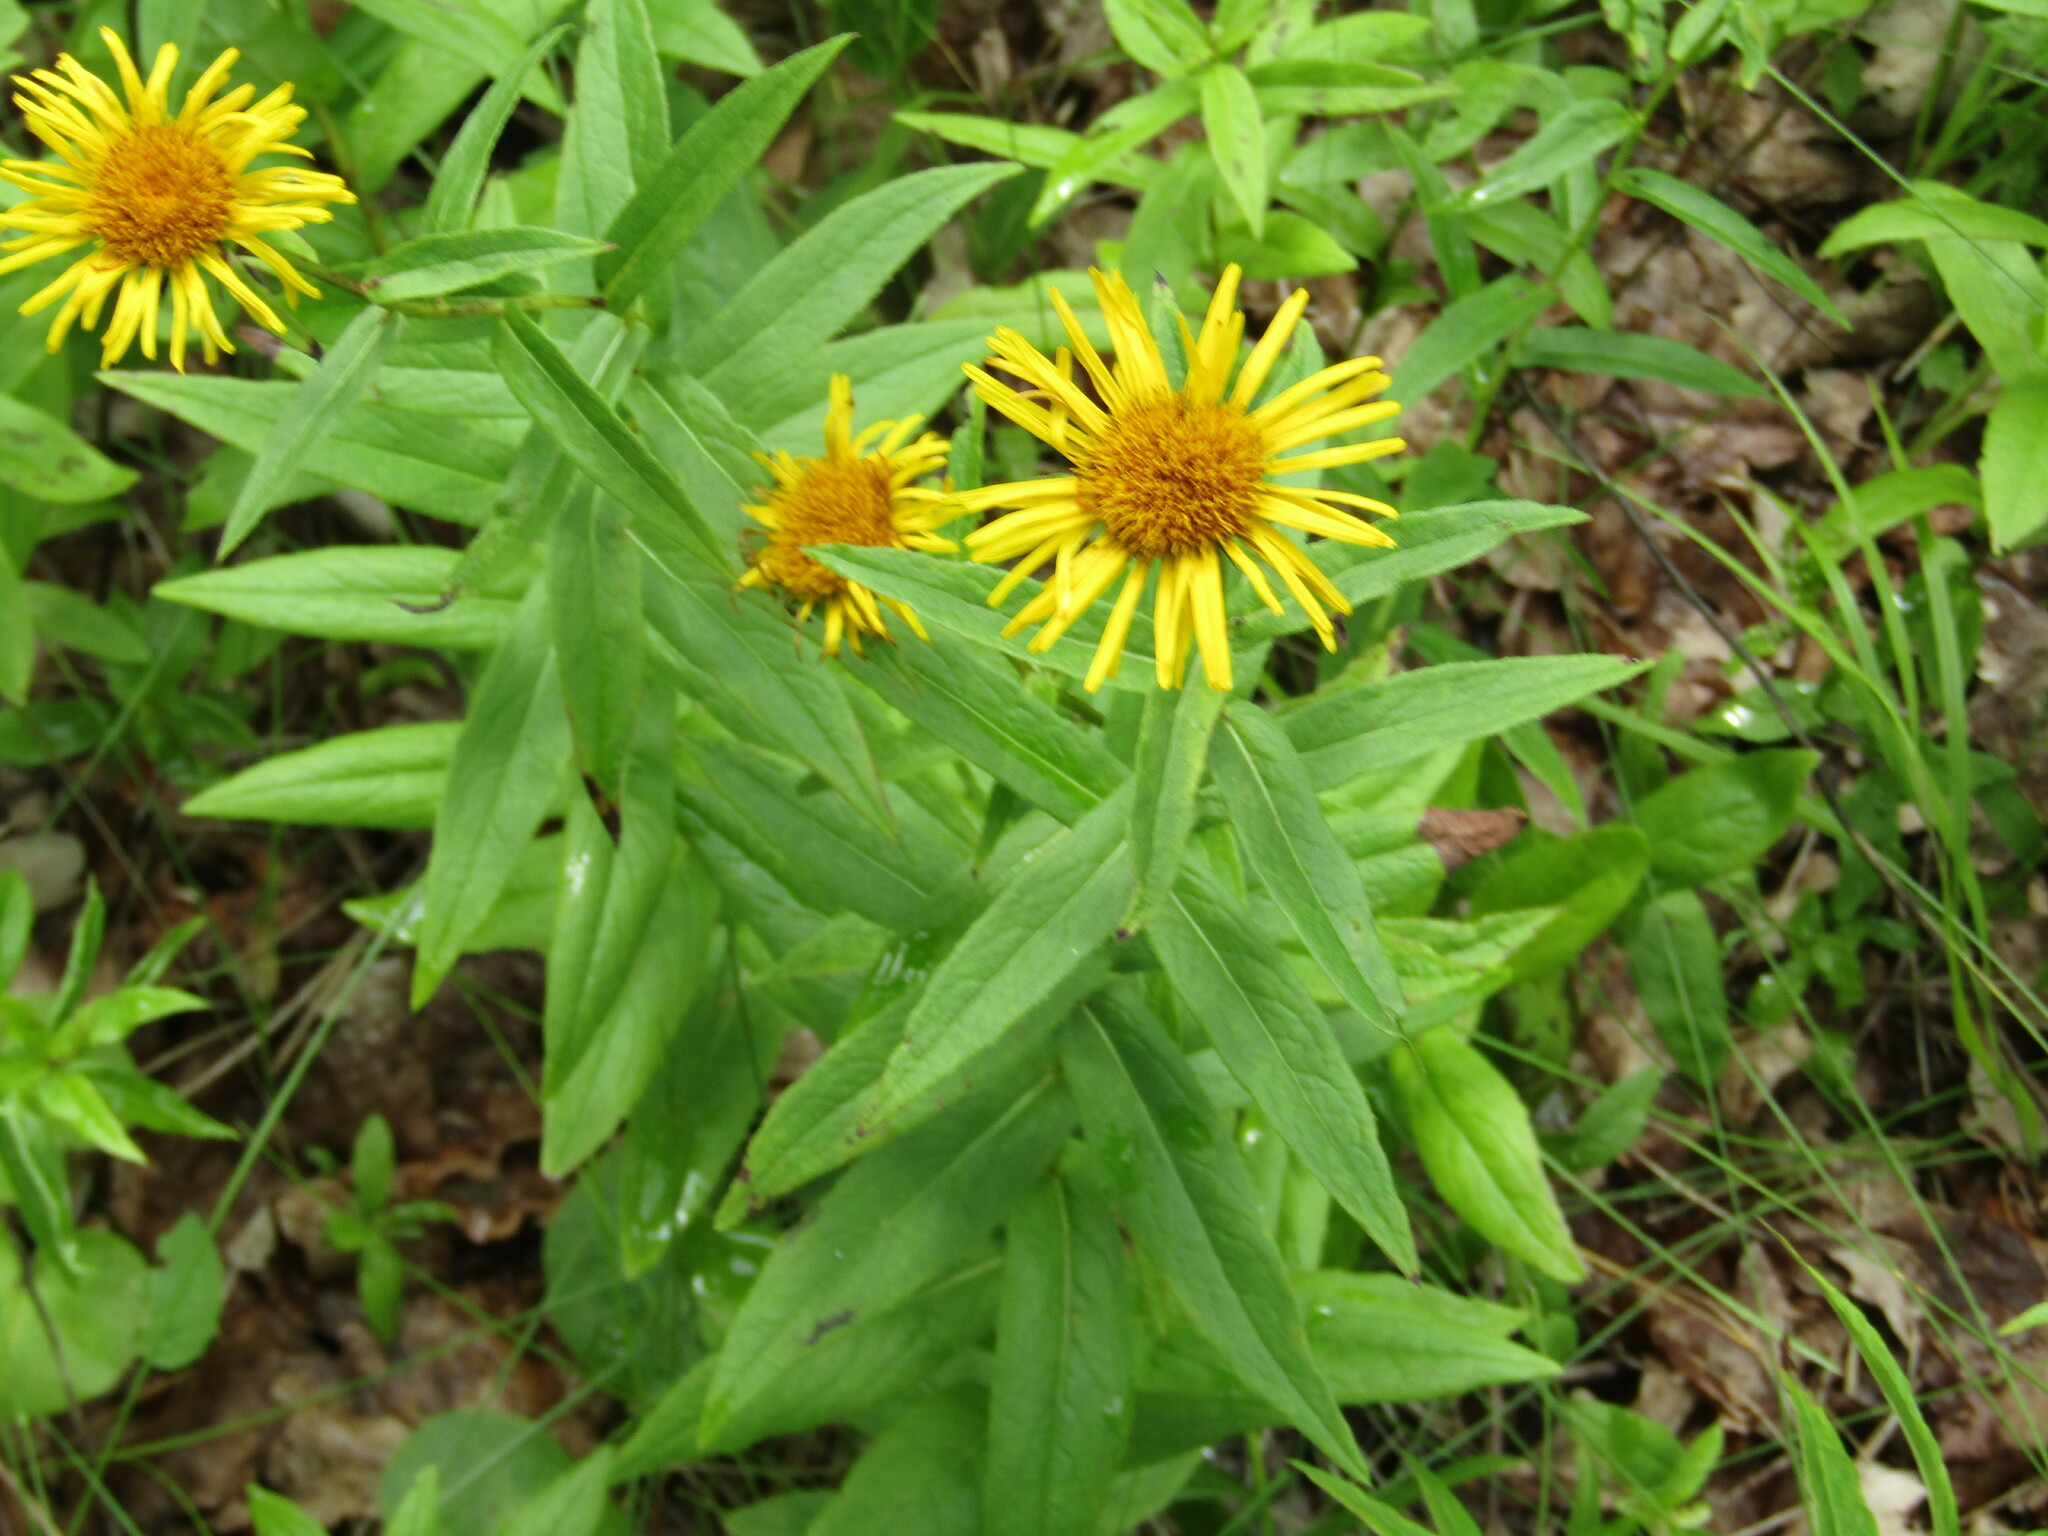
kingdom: Plantae
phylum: Tracheophyta
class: Magnoliopsida
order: Asterales
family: Asteraceae
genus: Pentanema
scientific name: Pentanema salicinum
